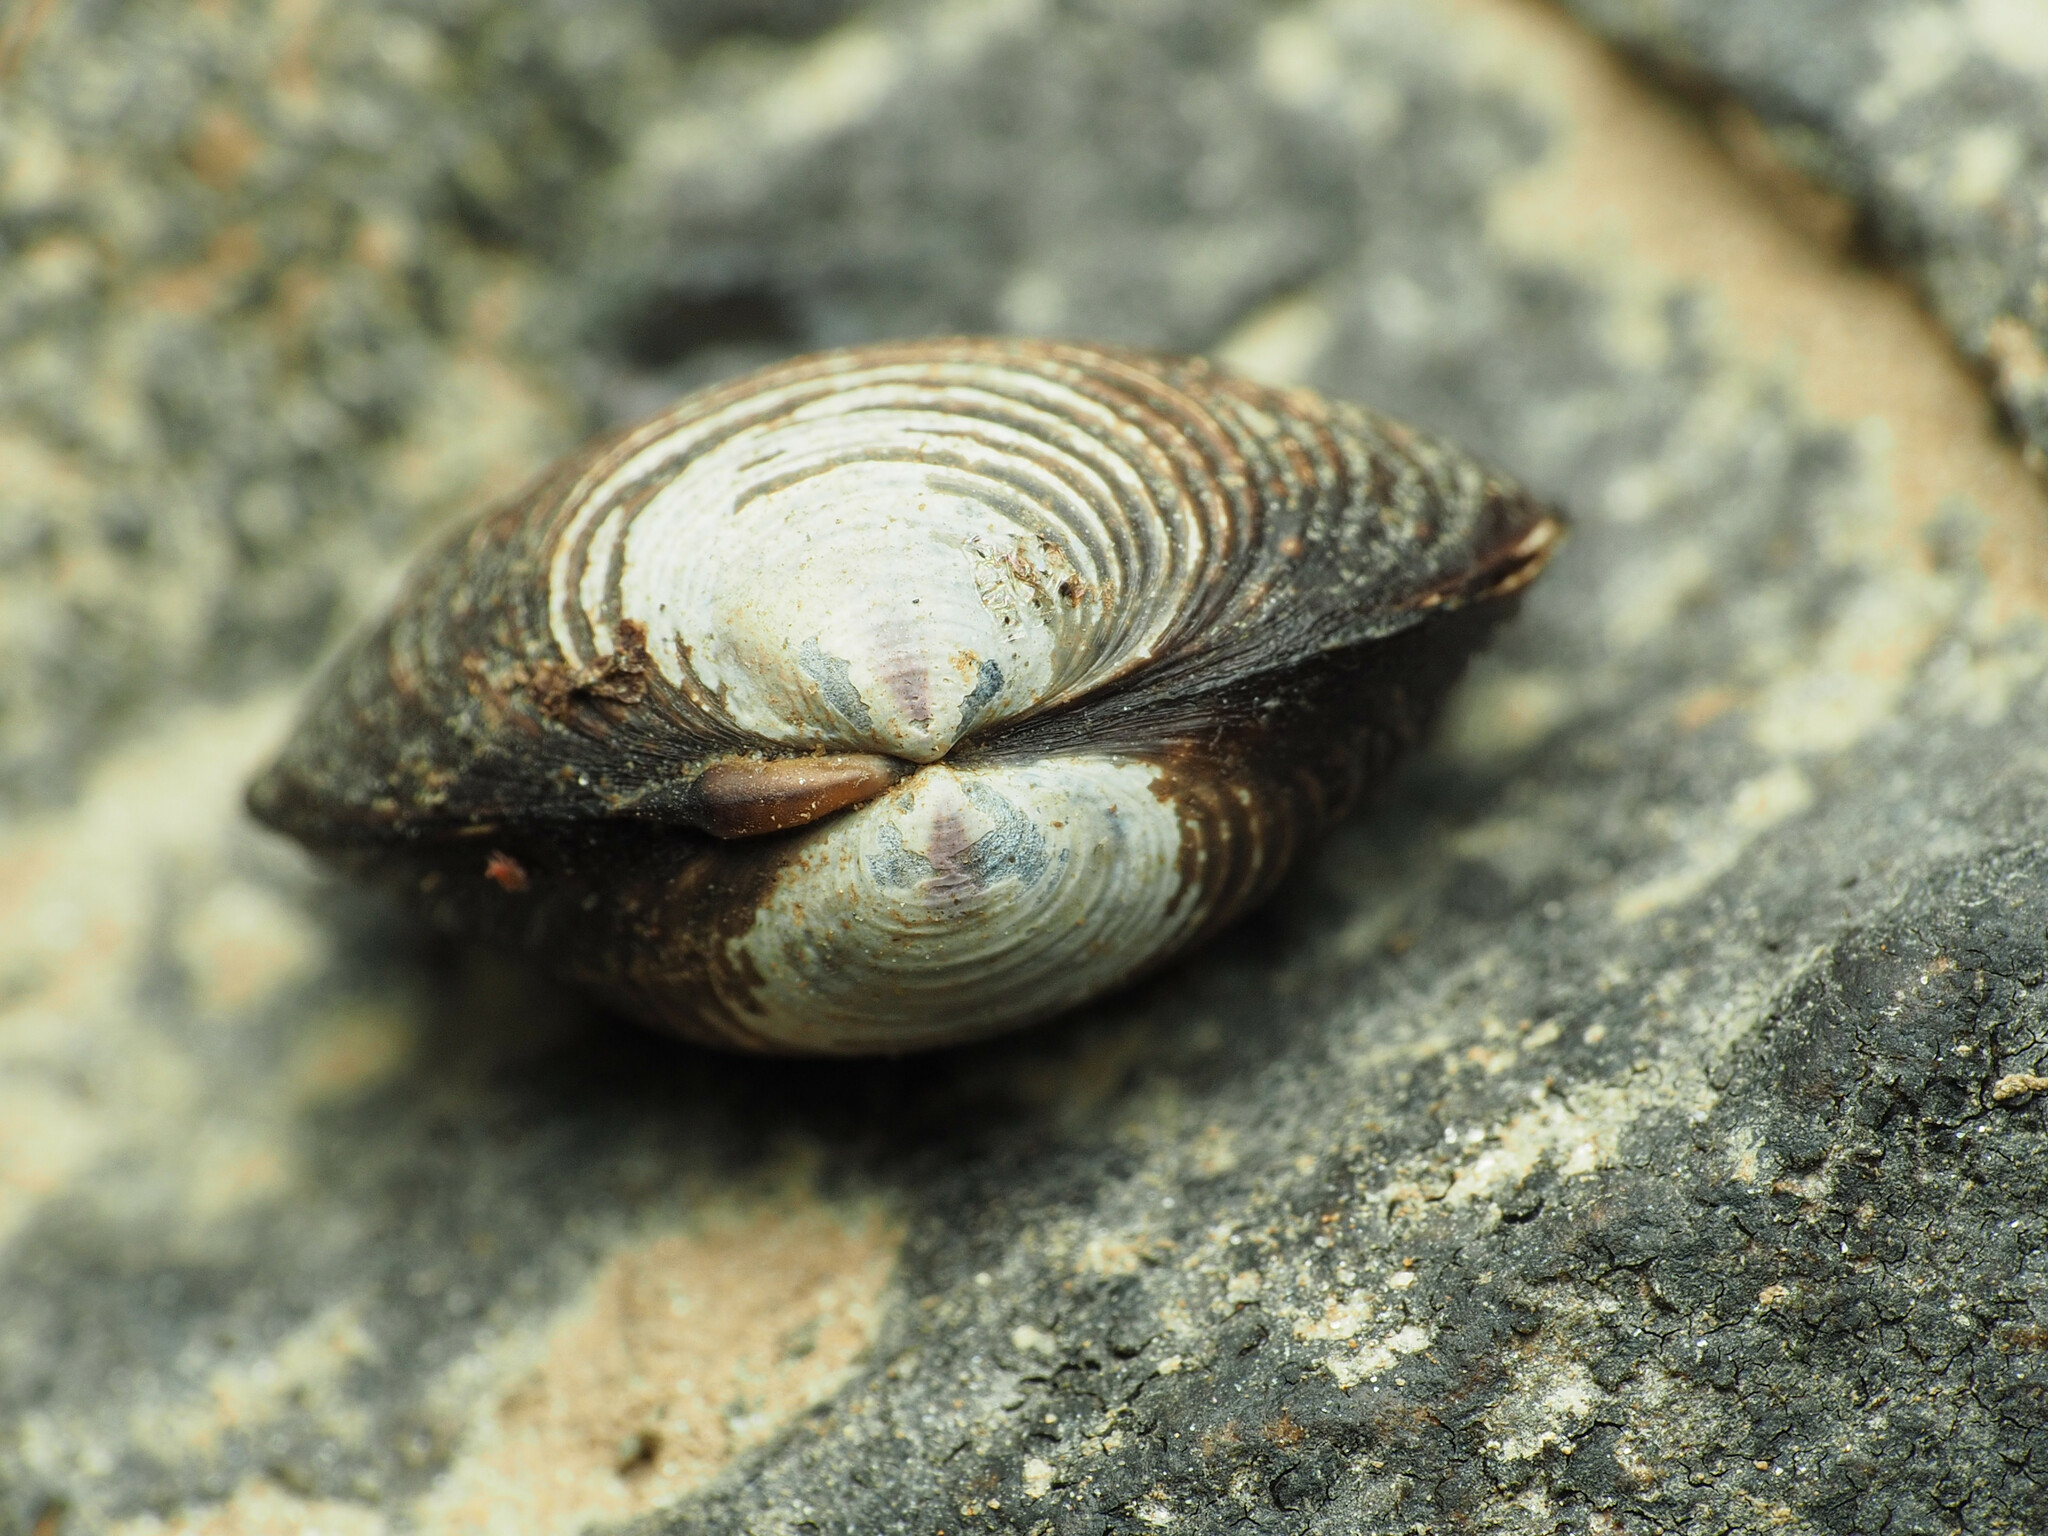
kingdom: Animalia
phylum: Mollusca
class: Bivalvia
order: Venerida
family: Cyrenidae
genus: Corbicula
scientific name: Corbicula fluminea
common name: Asian clam
